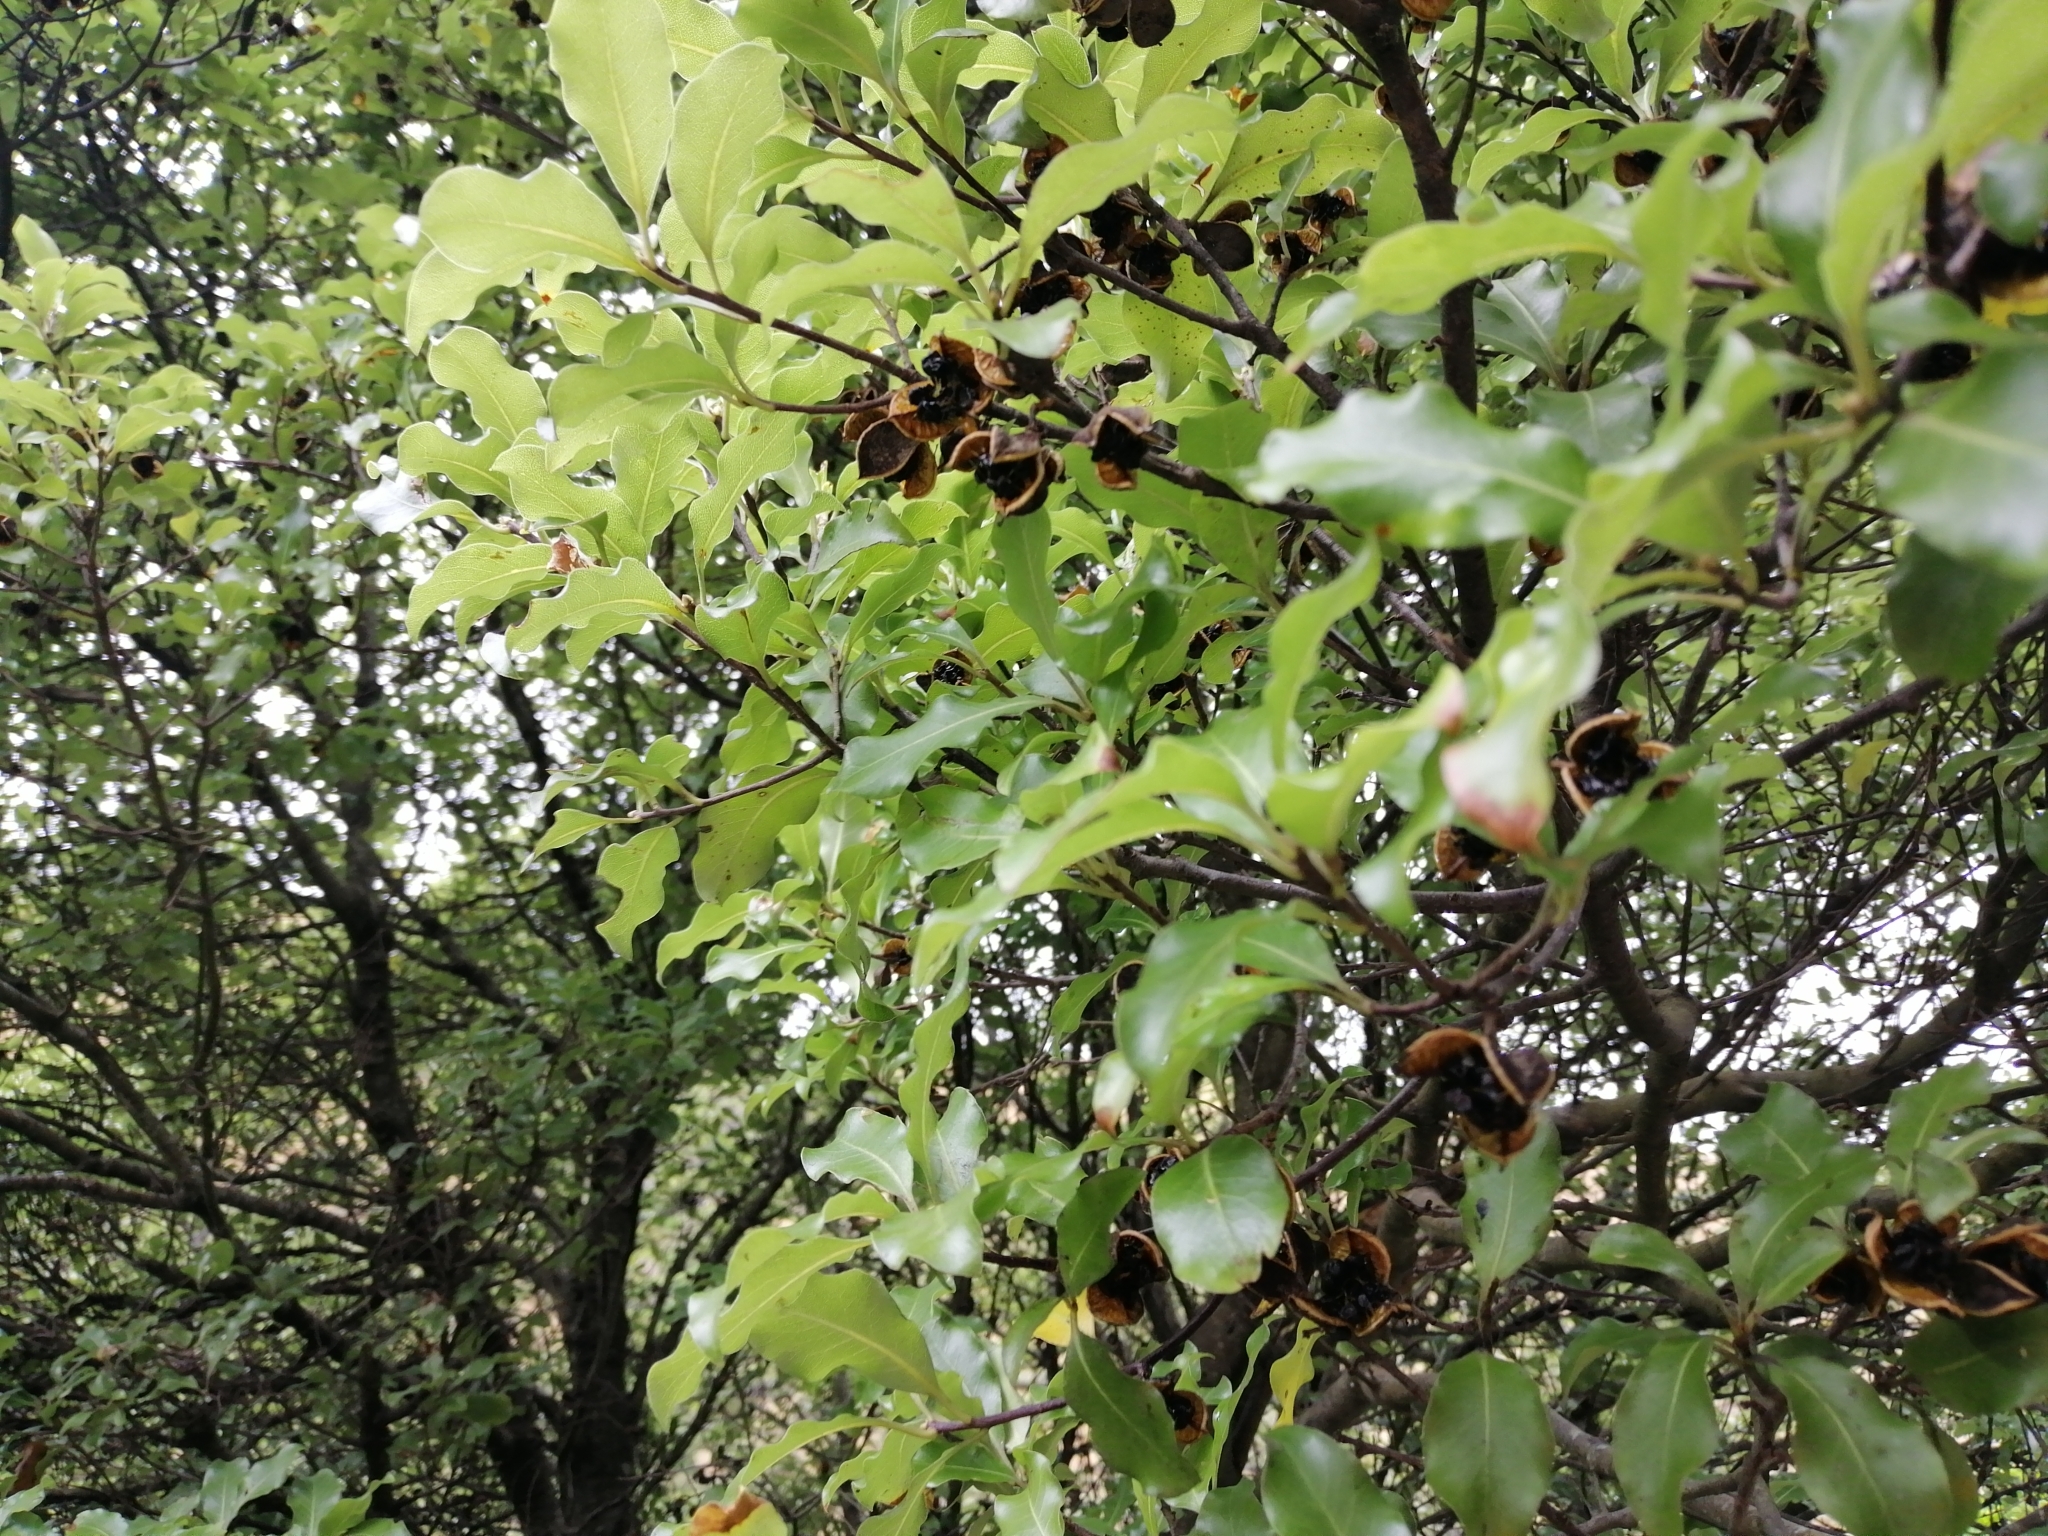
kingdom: Plantae
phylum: Tracheophyta
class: Magnoliopsida
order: Apiales
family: Pittosporaceae
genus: Pittosporum
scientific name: Pittosporum tenuifolium
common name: Kohuhu
